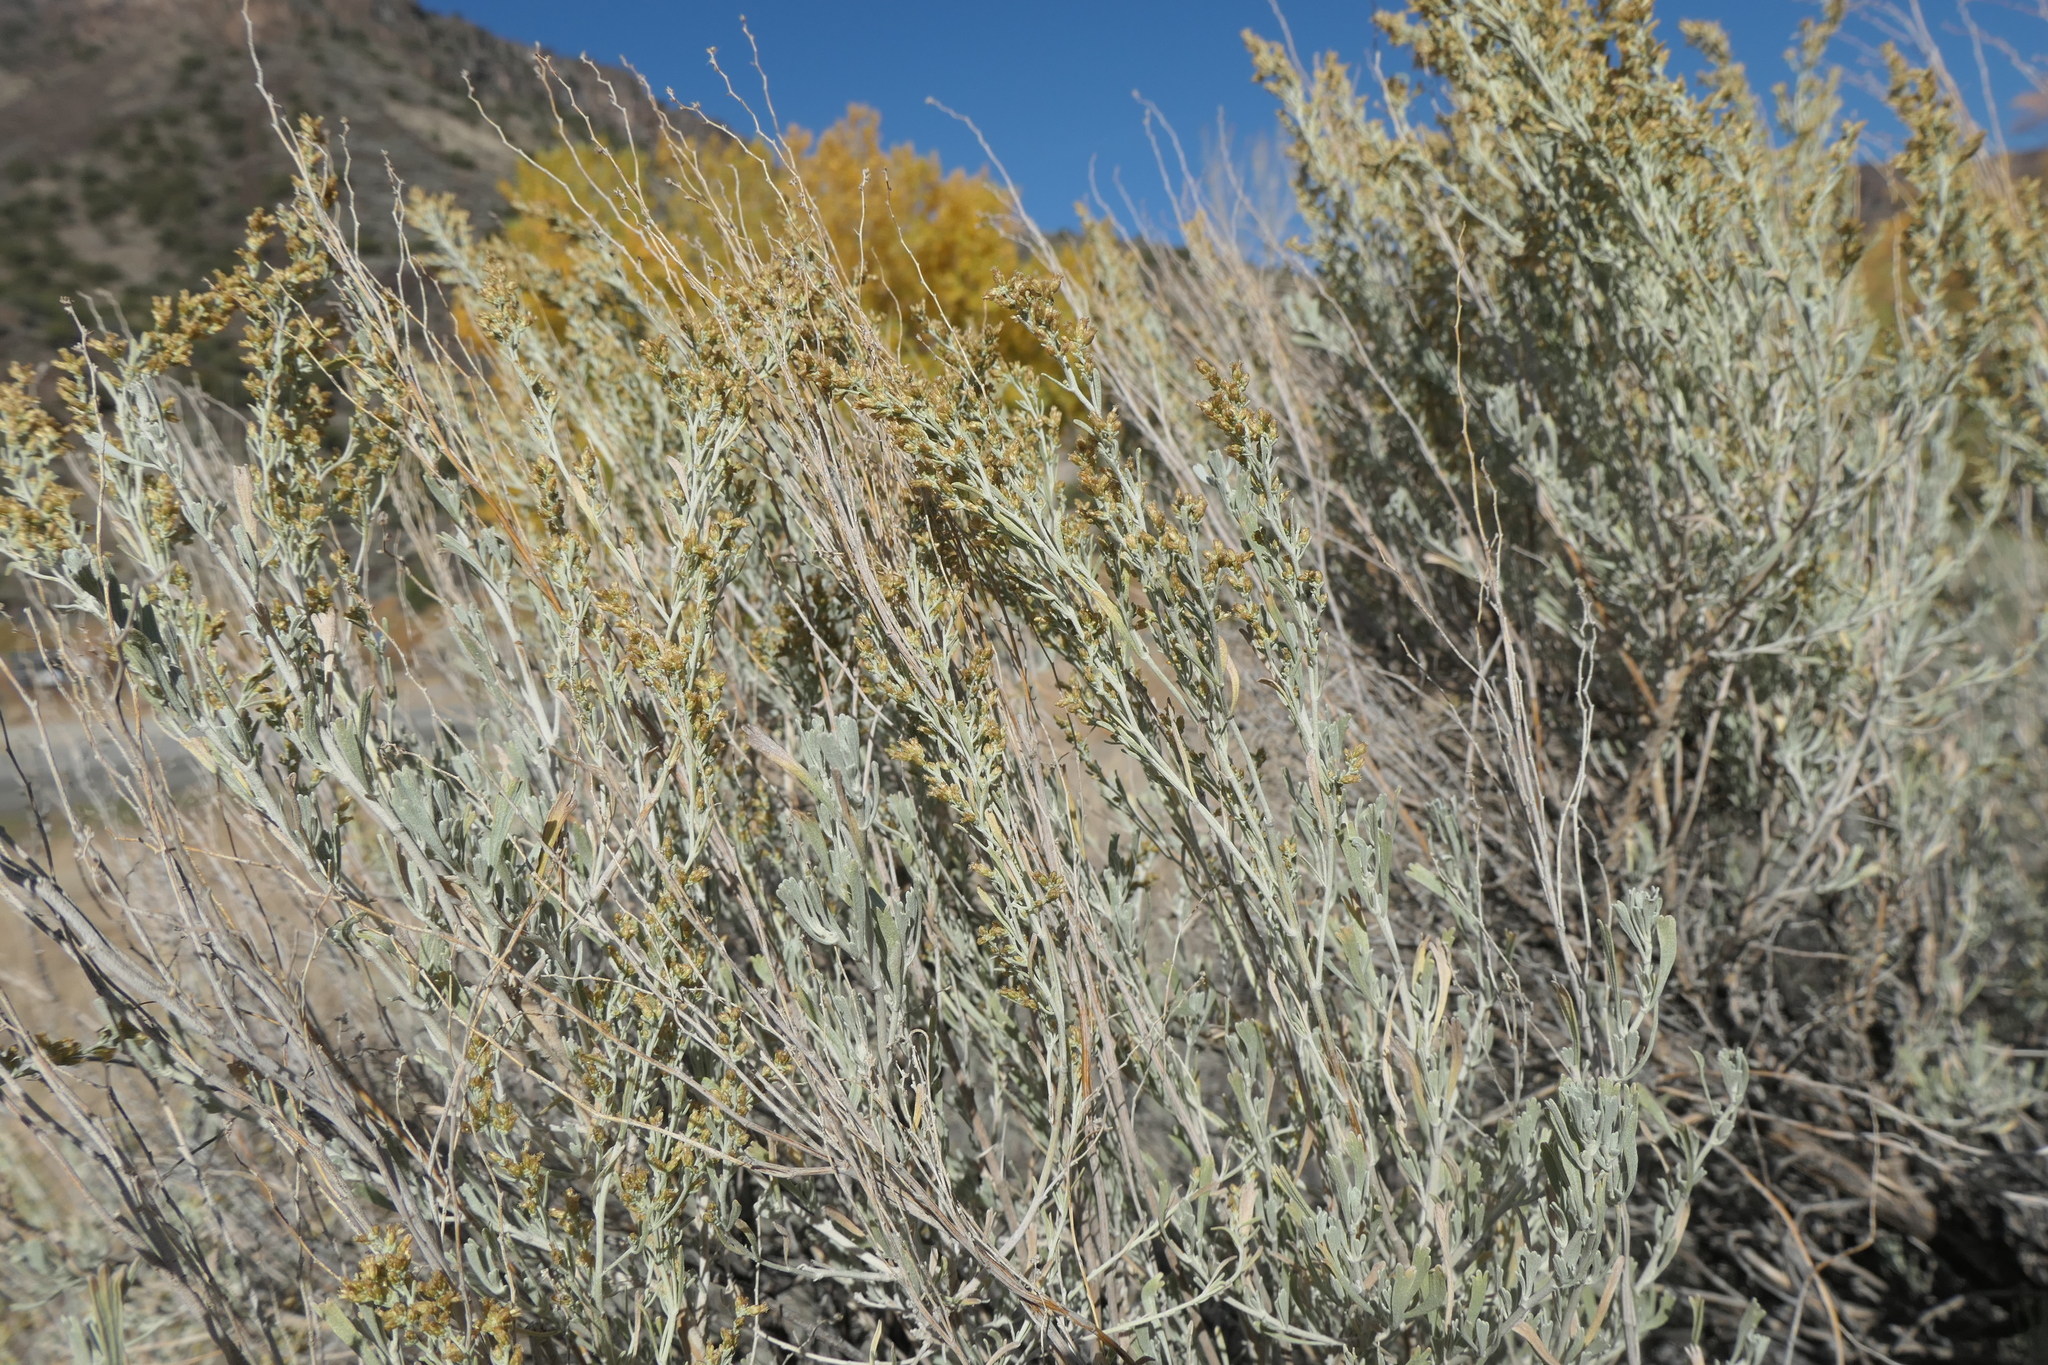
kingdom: Plantae
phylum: Tracheophyta
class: Magnoliopsida
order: Asterales
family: Asteraceae
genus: Artemisia
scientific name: Artemisia tridentata
